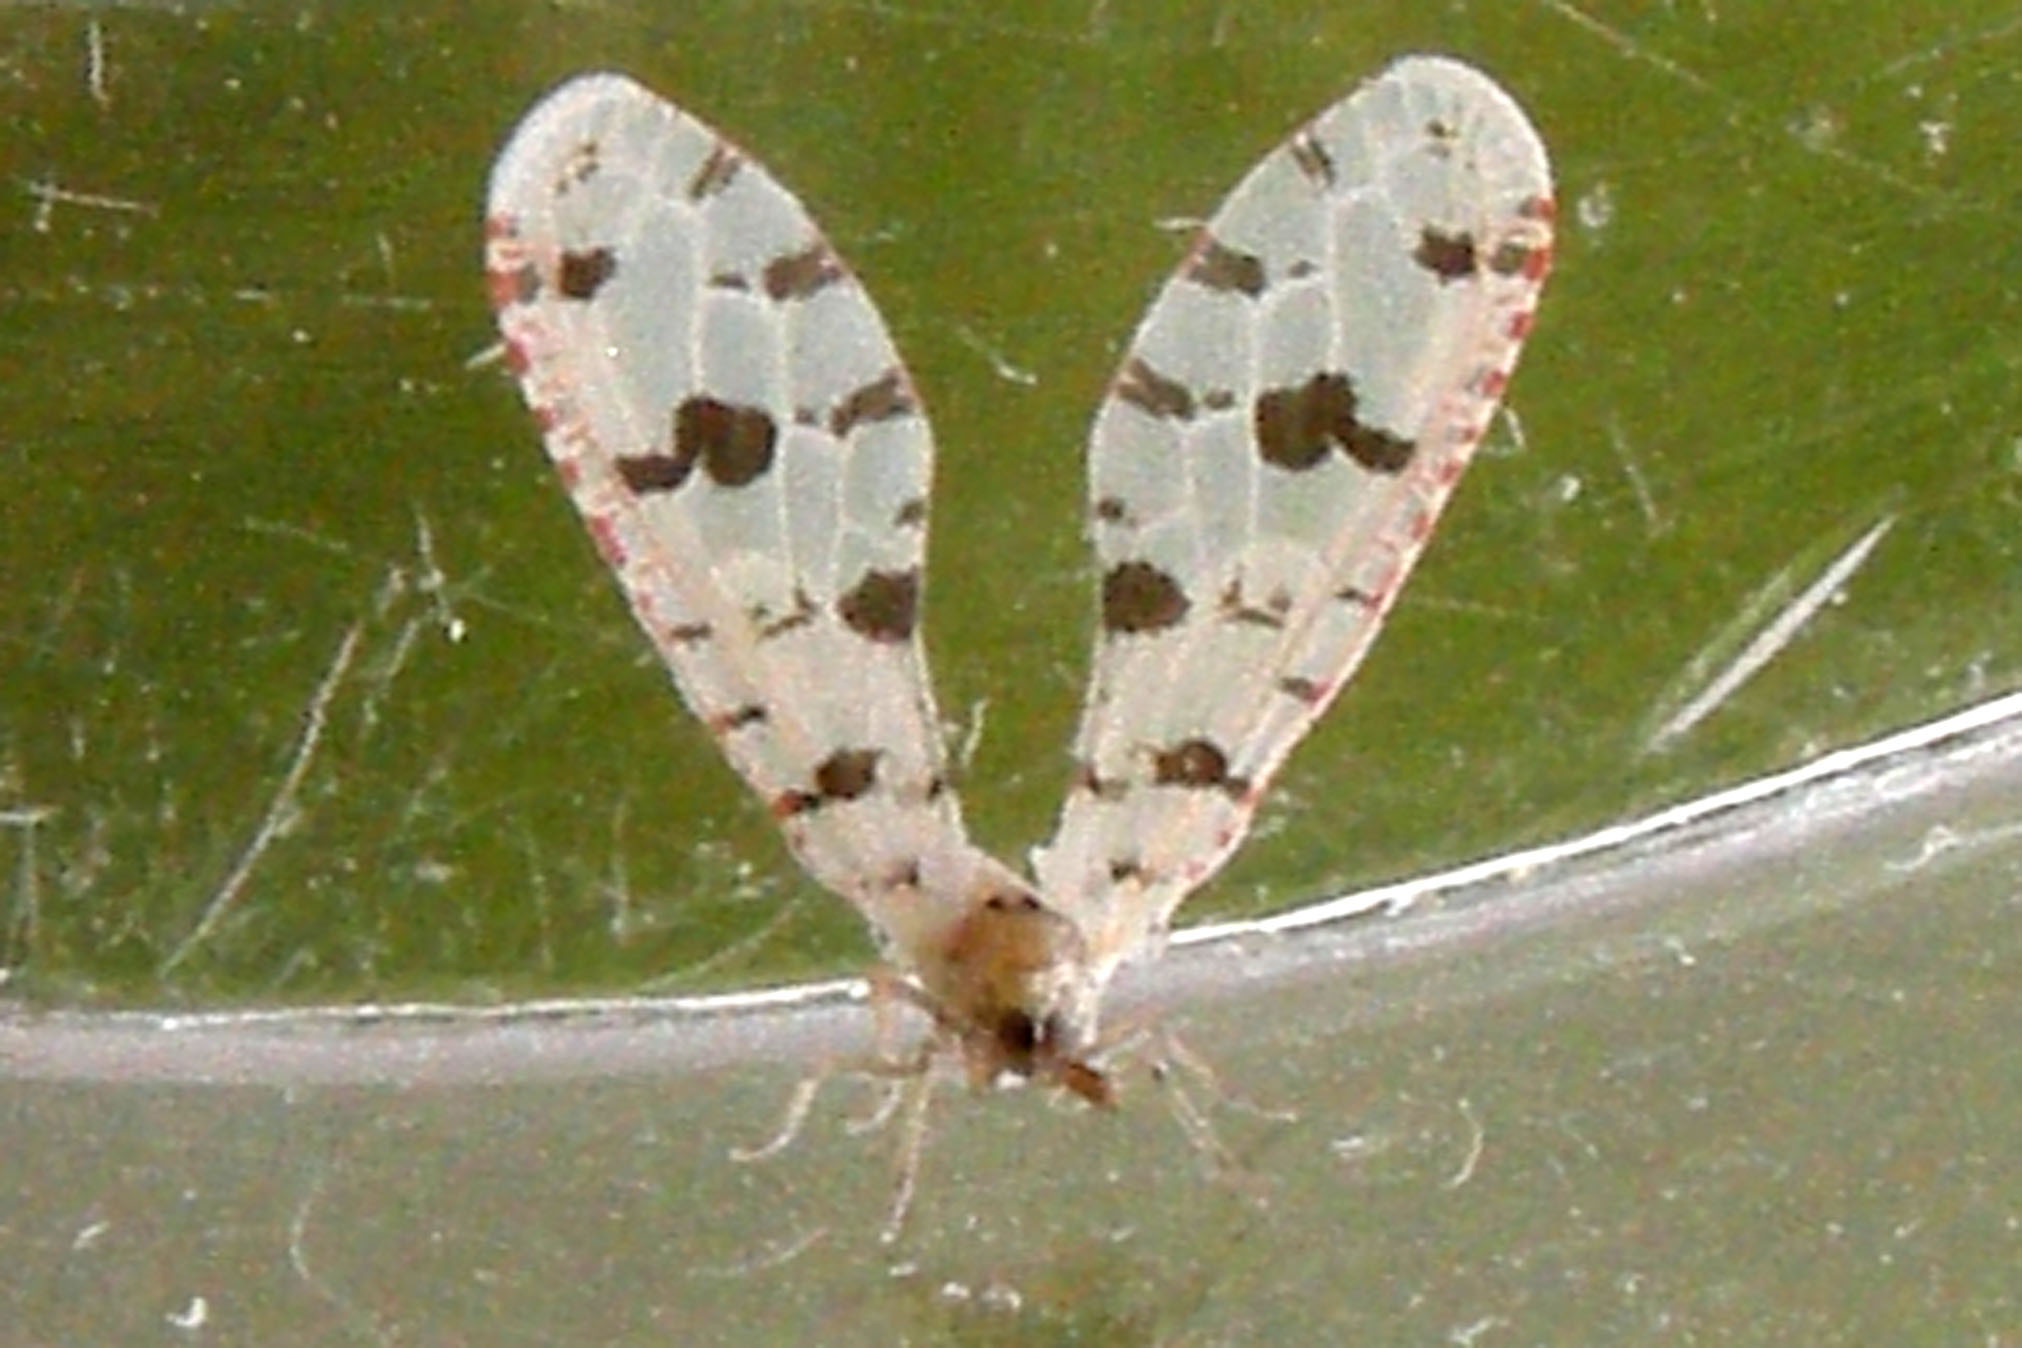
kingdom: Animalia
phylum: Arthropoda
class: Insecta
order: Hemiptera
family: Derbidae
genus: Sikaiana
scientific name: Sikaiana harti
